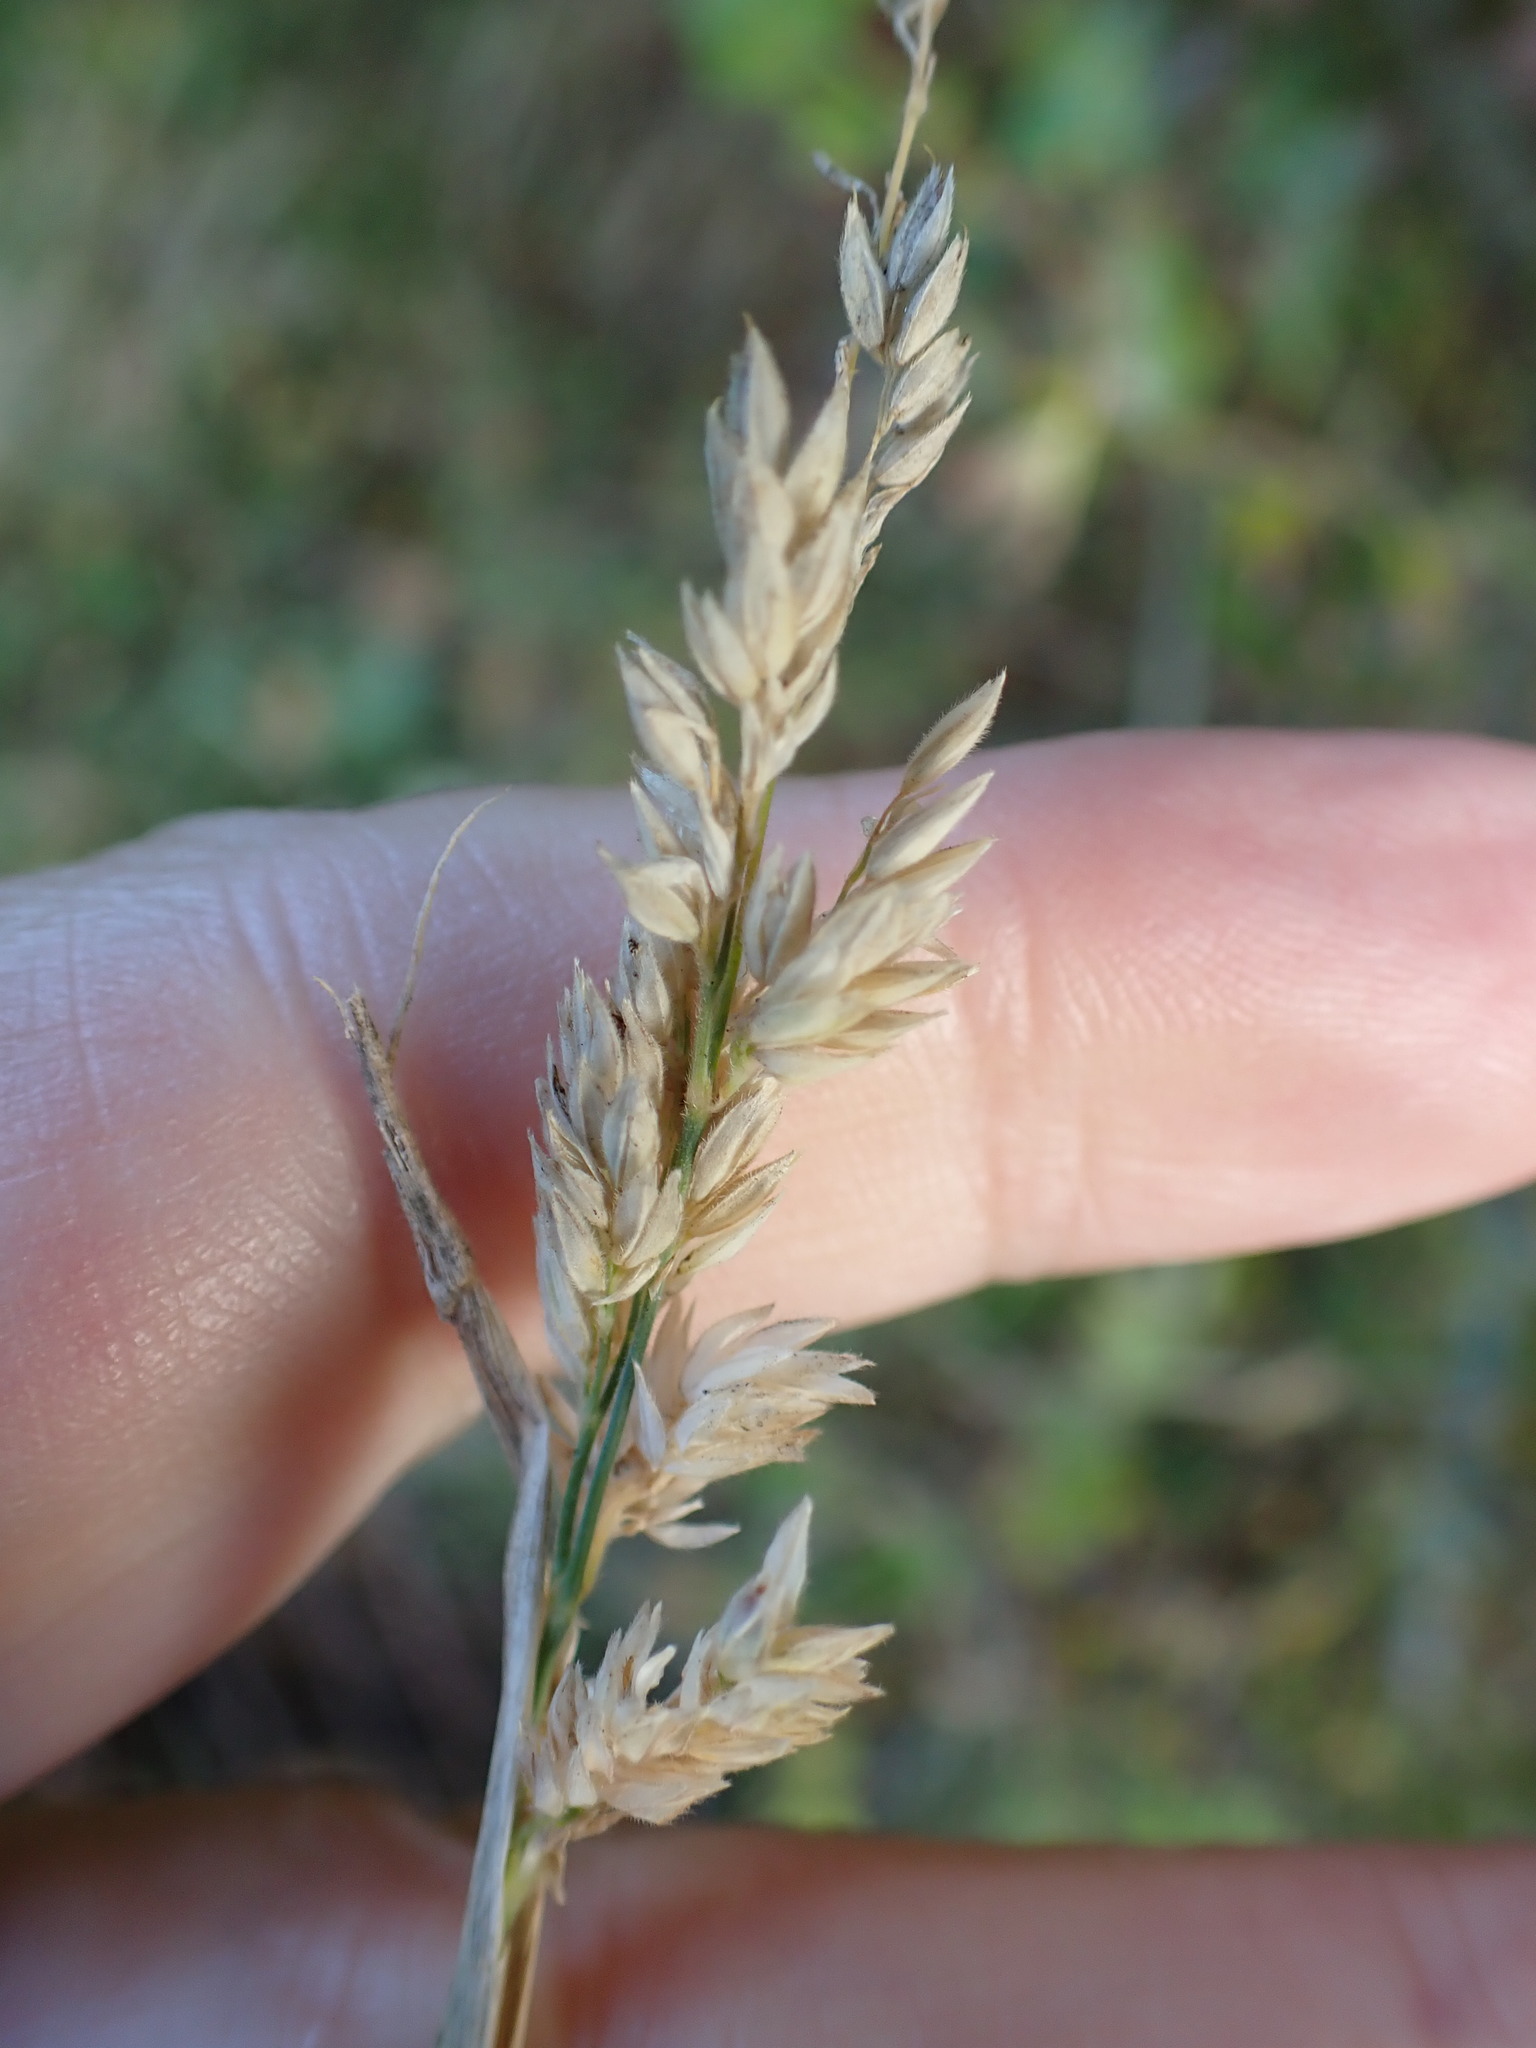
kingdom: Plantae
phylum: Tracheophyta
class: Liliopsida
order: Poales
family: Poaceae
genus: Holcus
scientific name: Holcus lanatus
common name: Yorkshire-fog
